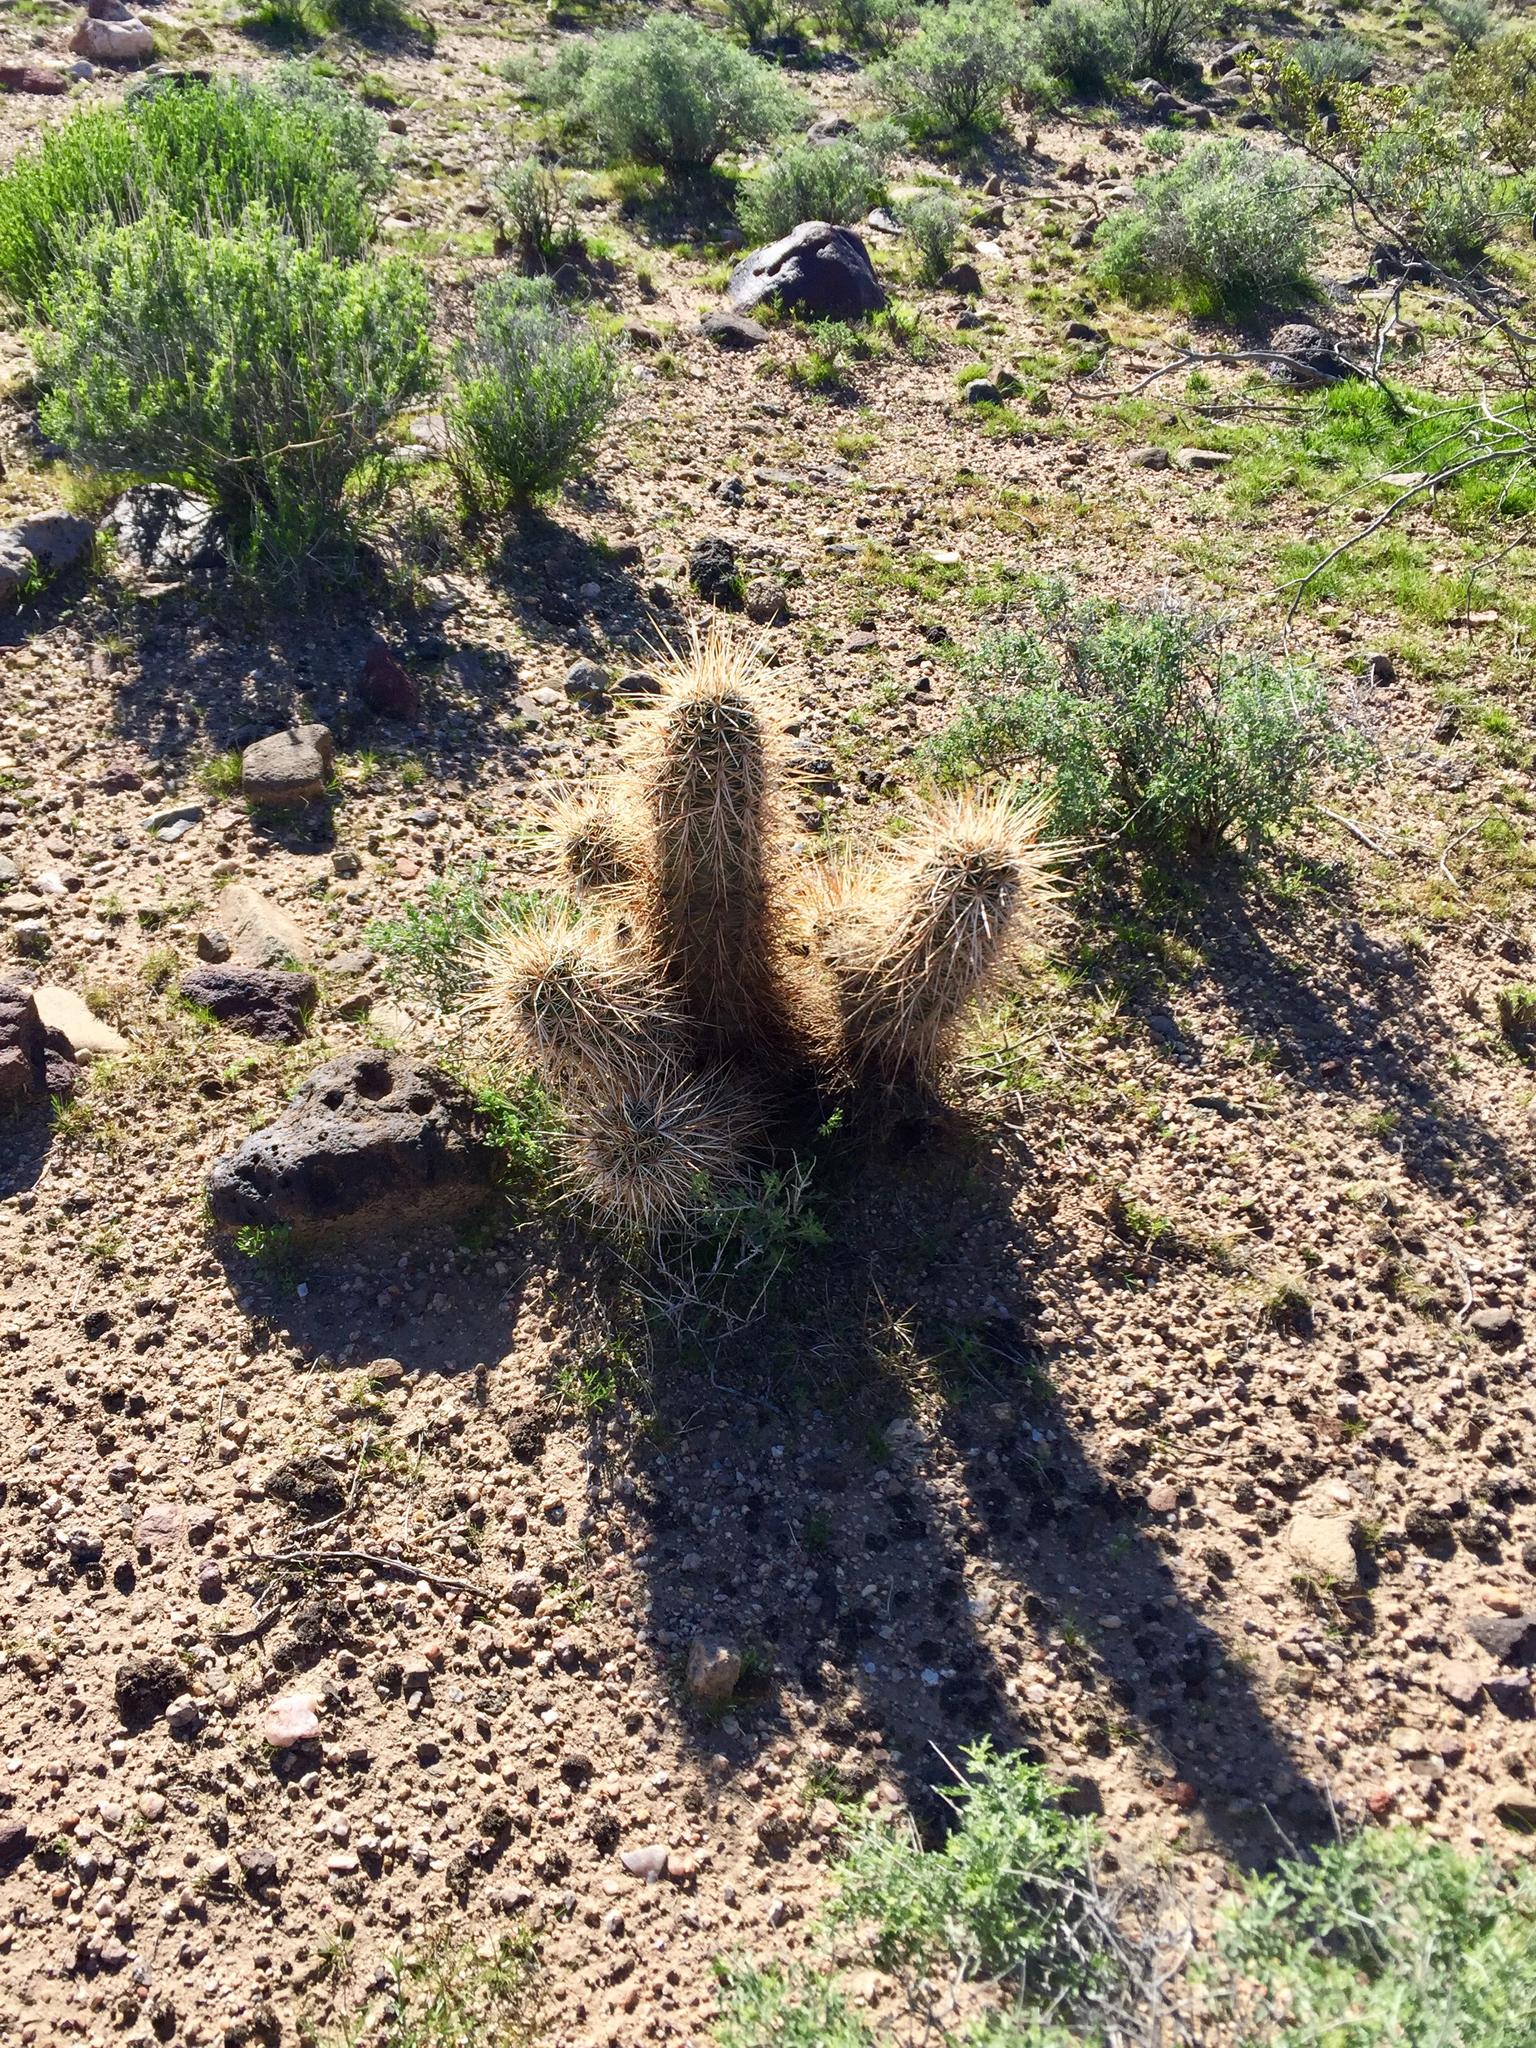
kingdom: Plantae
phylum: Tracheophyta
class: Magnoliopsida
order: Caryophyllales
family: Cactaceae
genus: Echinocereus
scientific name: Echinocereus engelmannii
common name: Engelmann's hedgehog cactus
